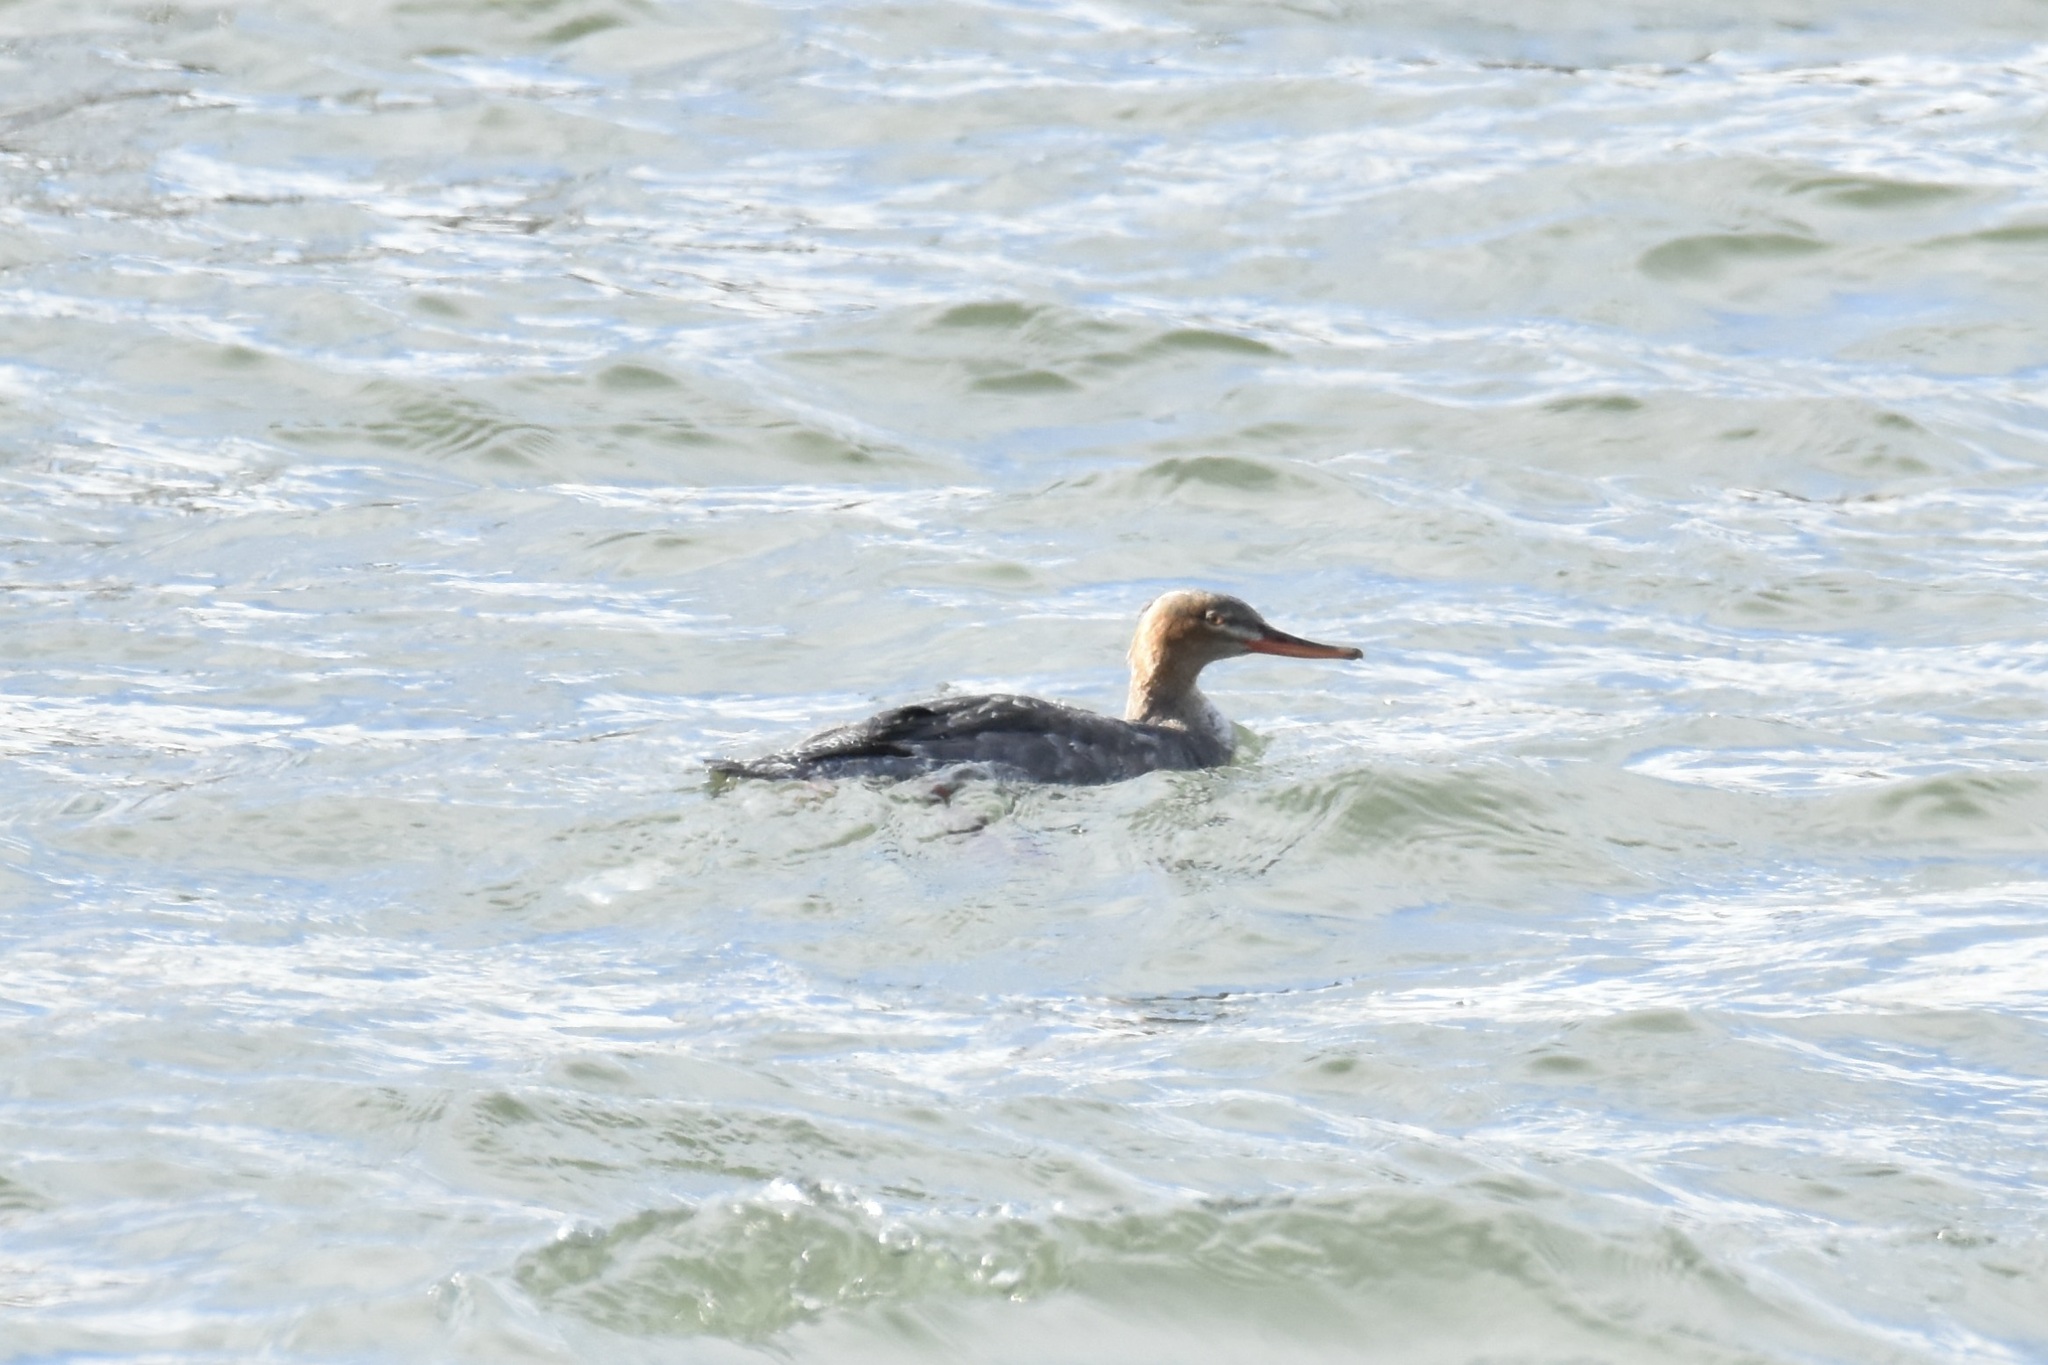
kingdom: Animalia
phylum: Chordata
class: Aves
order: Anseriformes
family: Anatidae
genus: Mergus
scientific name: Mergus serrator
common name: Red-breasted merganser
